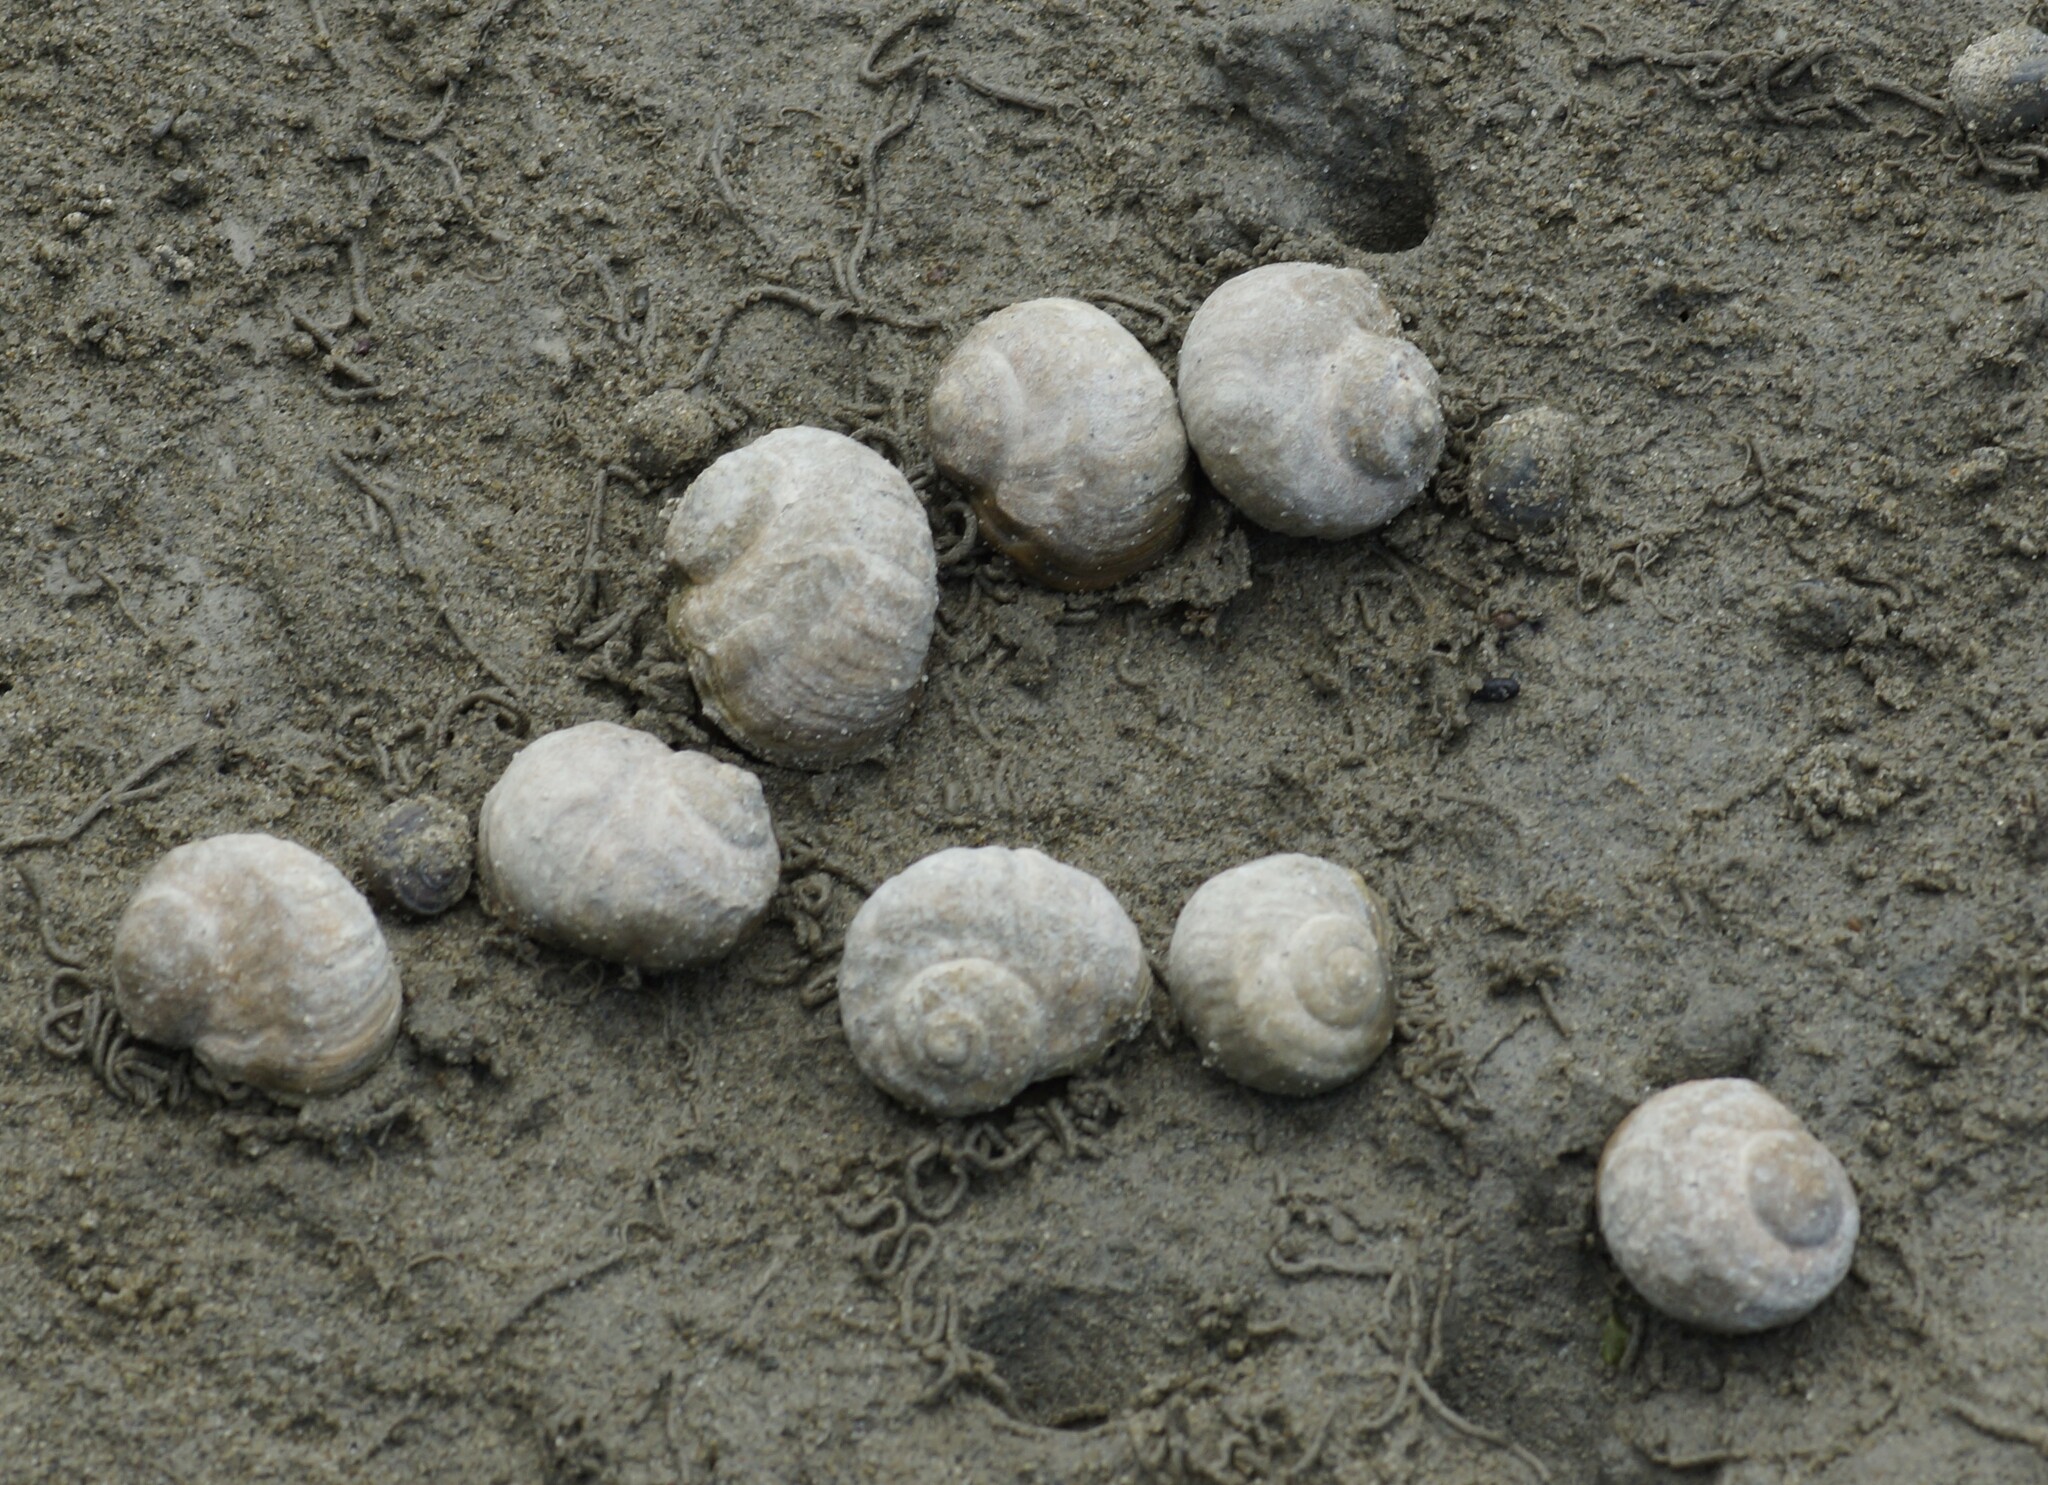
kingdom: Animalia
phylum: Mollusca
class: Gastropoda
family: Amphibolidae
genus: Amphibola
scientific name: Amphibola crenata
